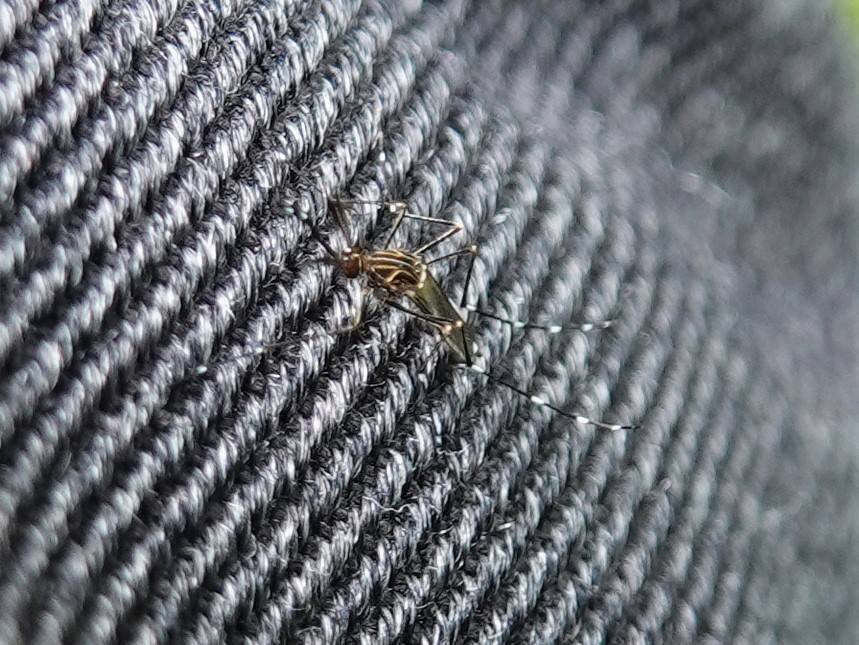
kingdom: Animalia
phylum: Arthropoda
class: Insecta
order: Diptera
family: Culicidae
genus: Aedes
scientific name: Aedes notoscriptus
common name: Australian backyard mosquito
